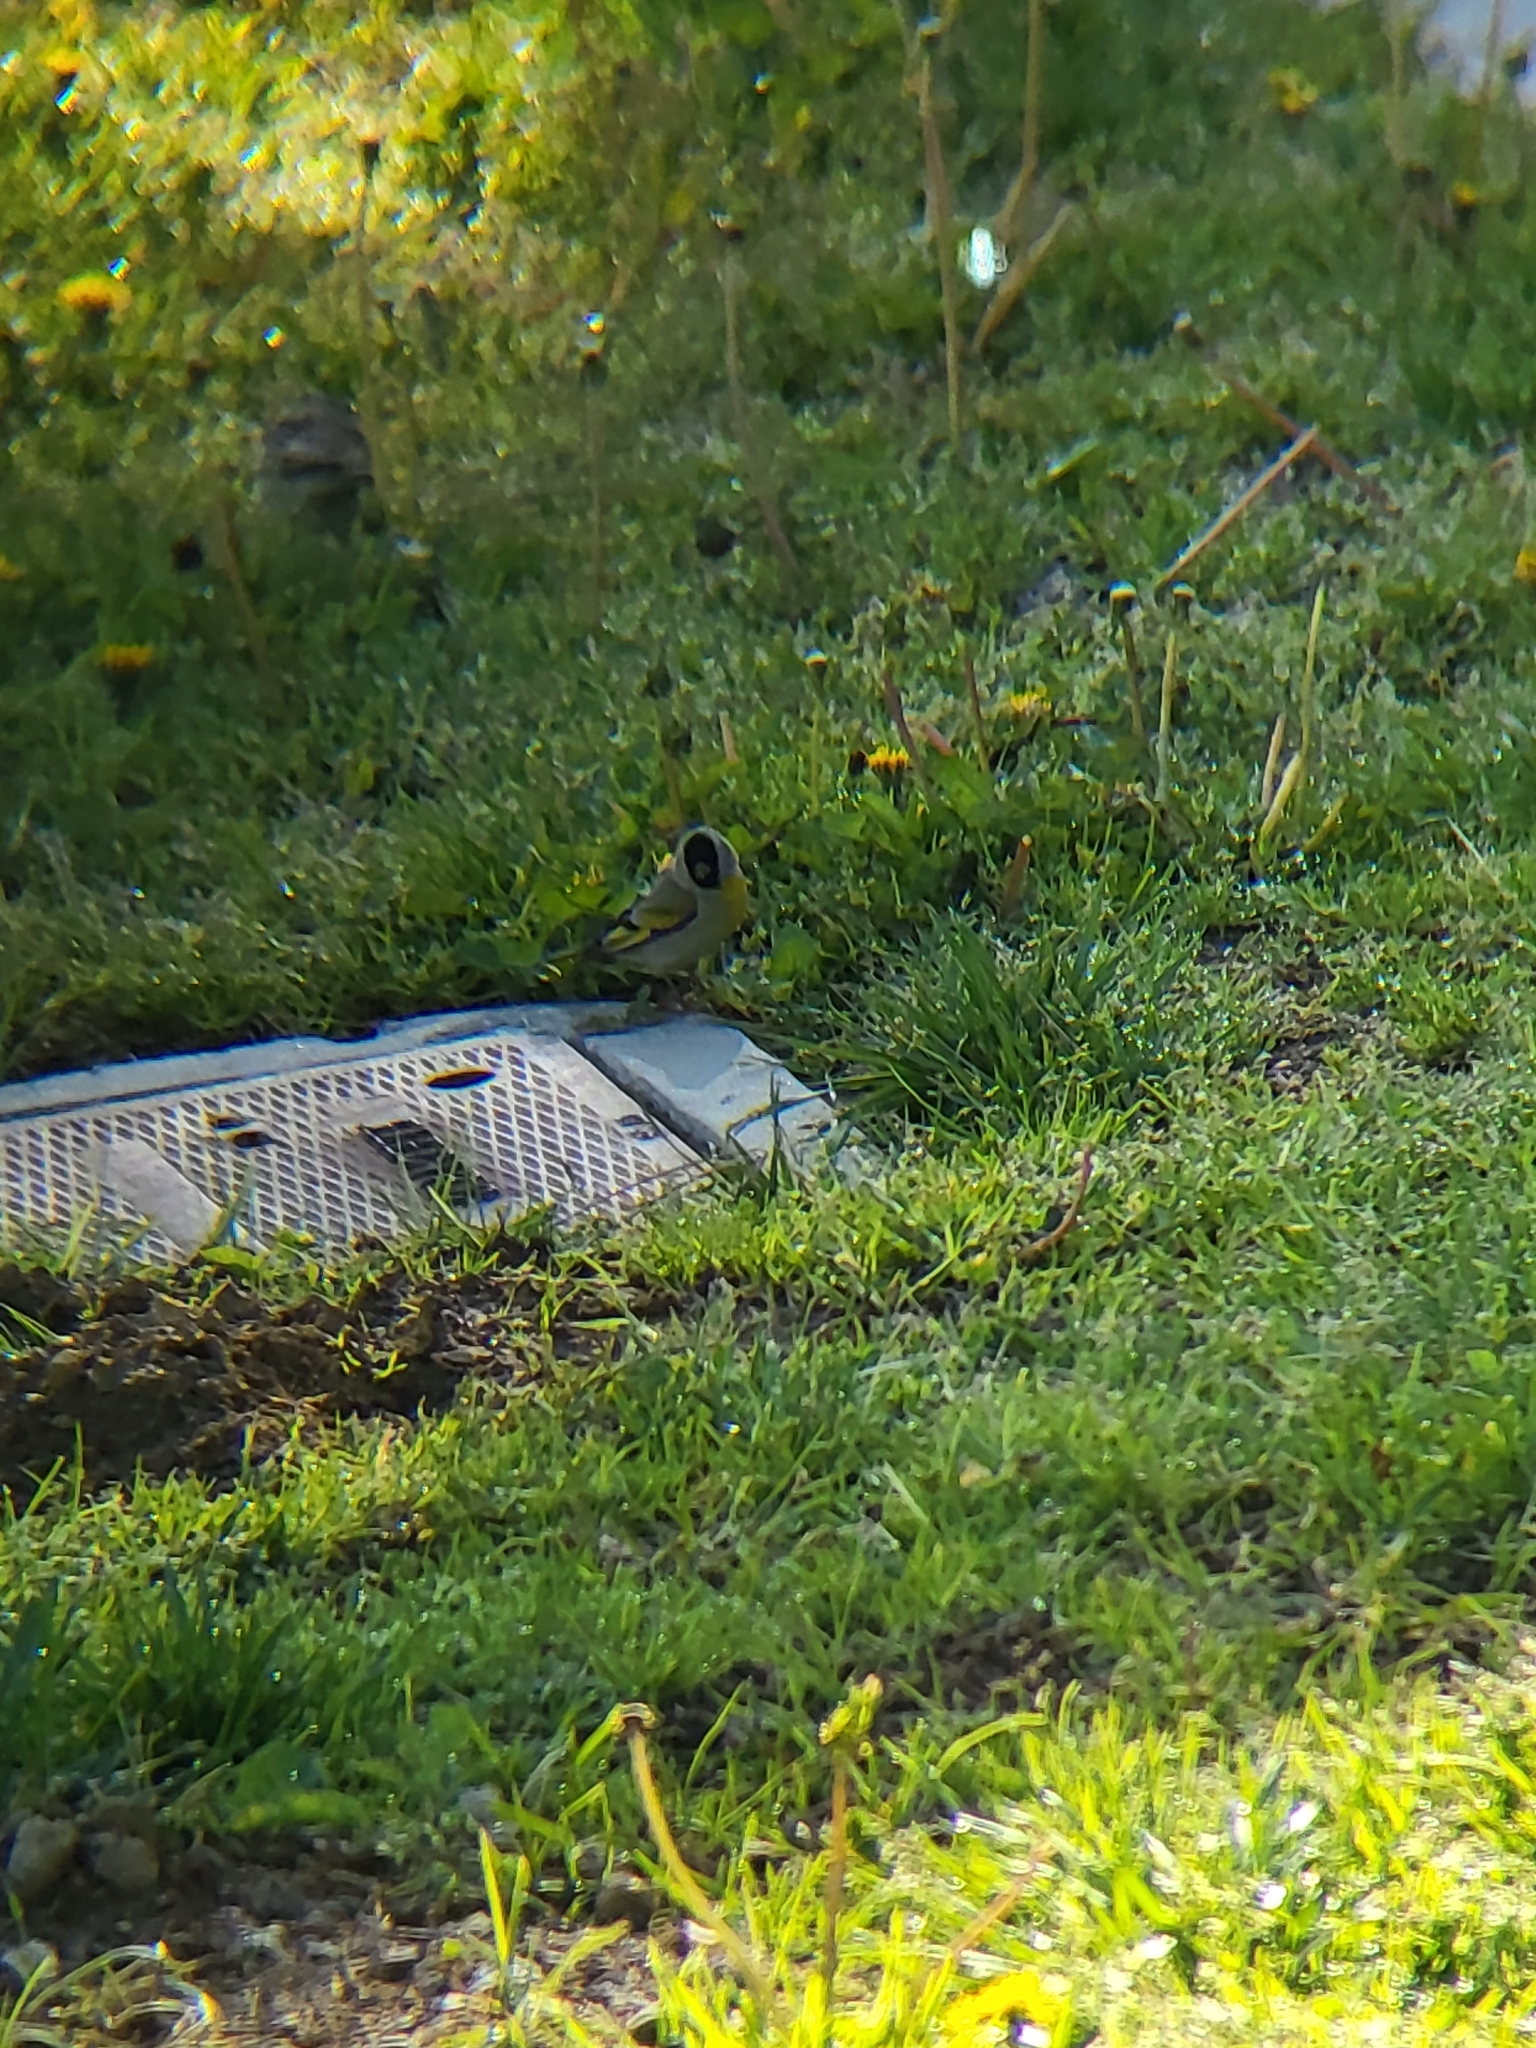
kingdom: Animalia
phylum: Chordata
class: Aves
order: Passeriformes
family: Fringillidae
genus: Spinus
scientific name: Spinus lawrencei
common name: Lawrence's goldfinch
